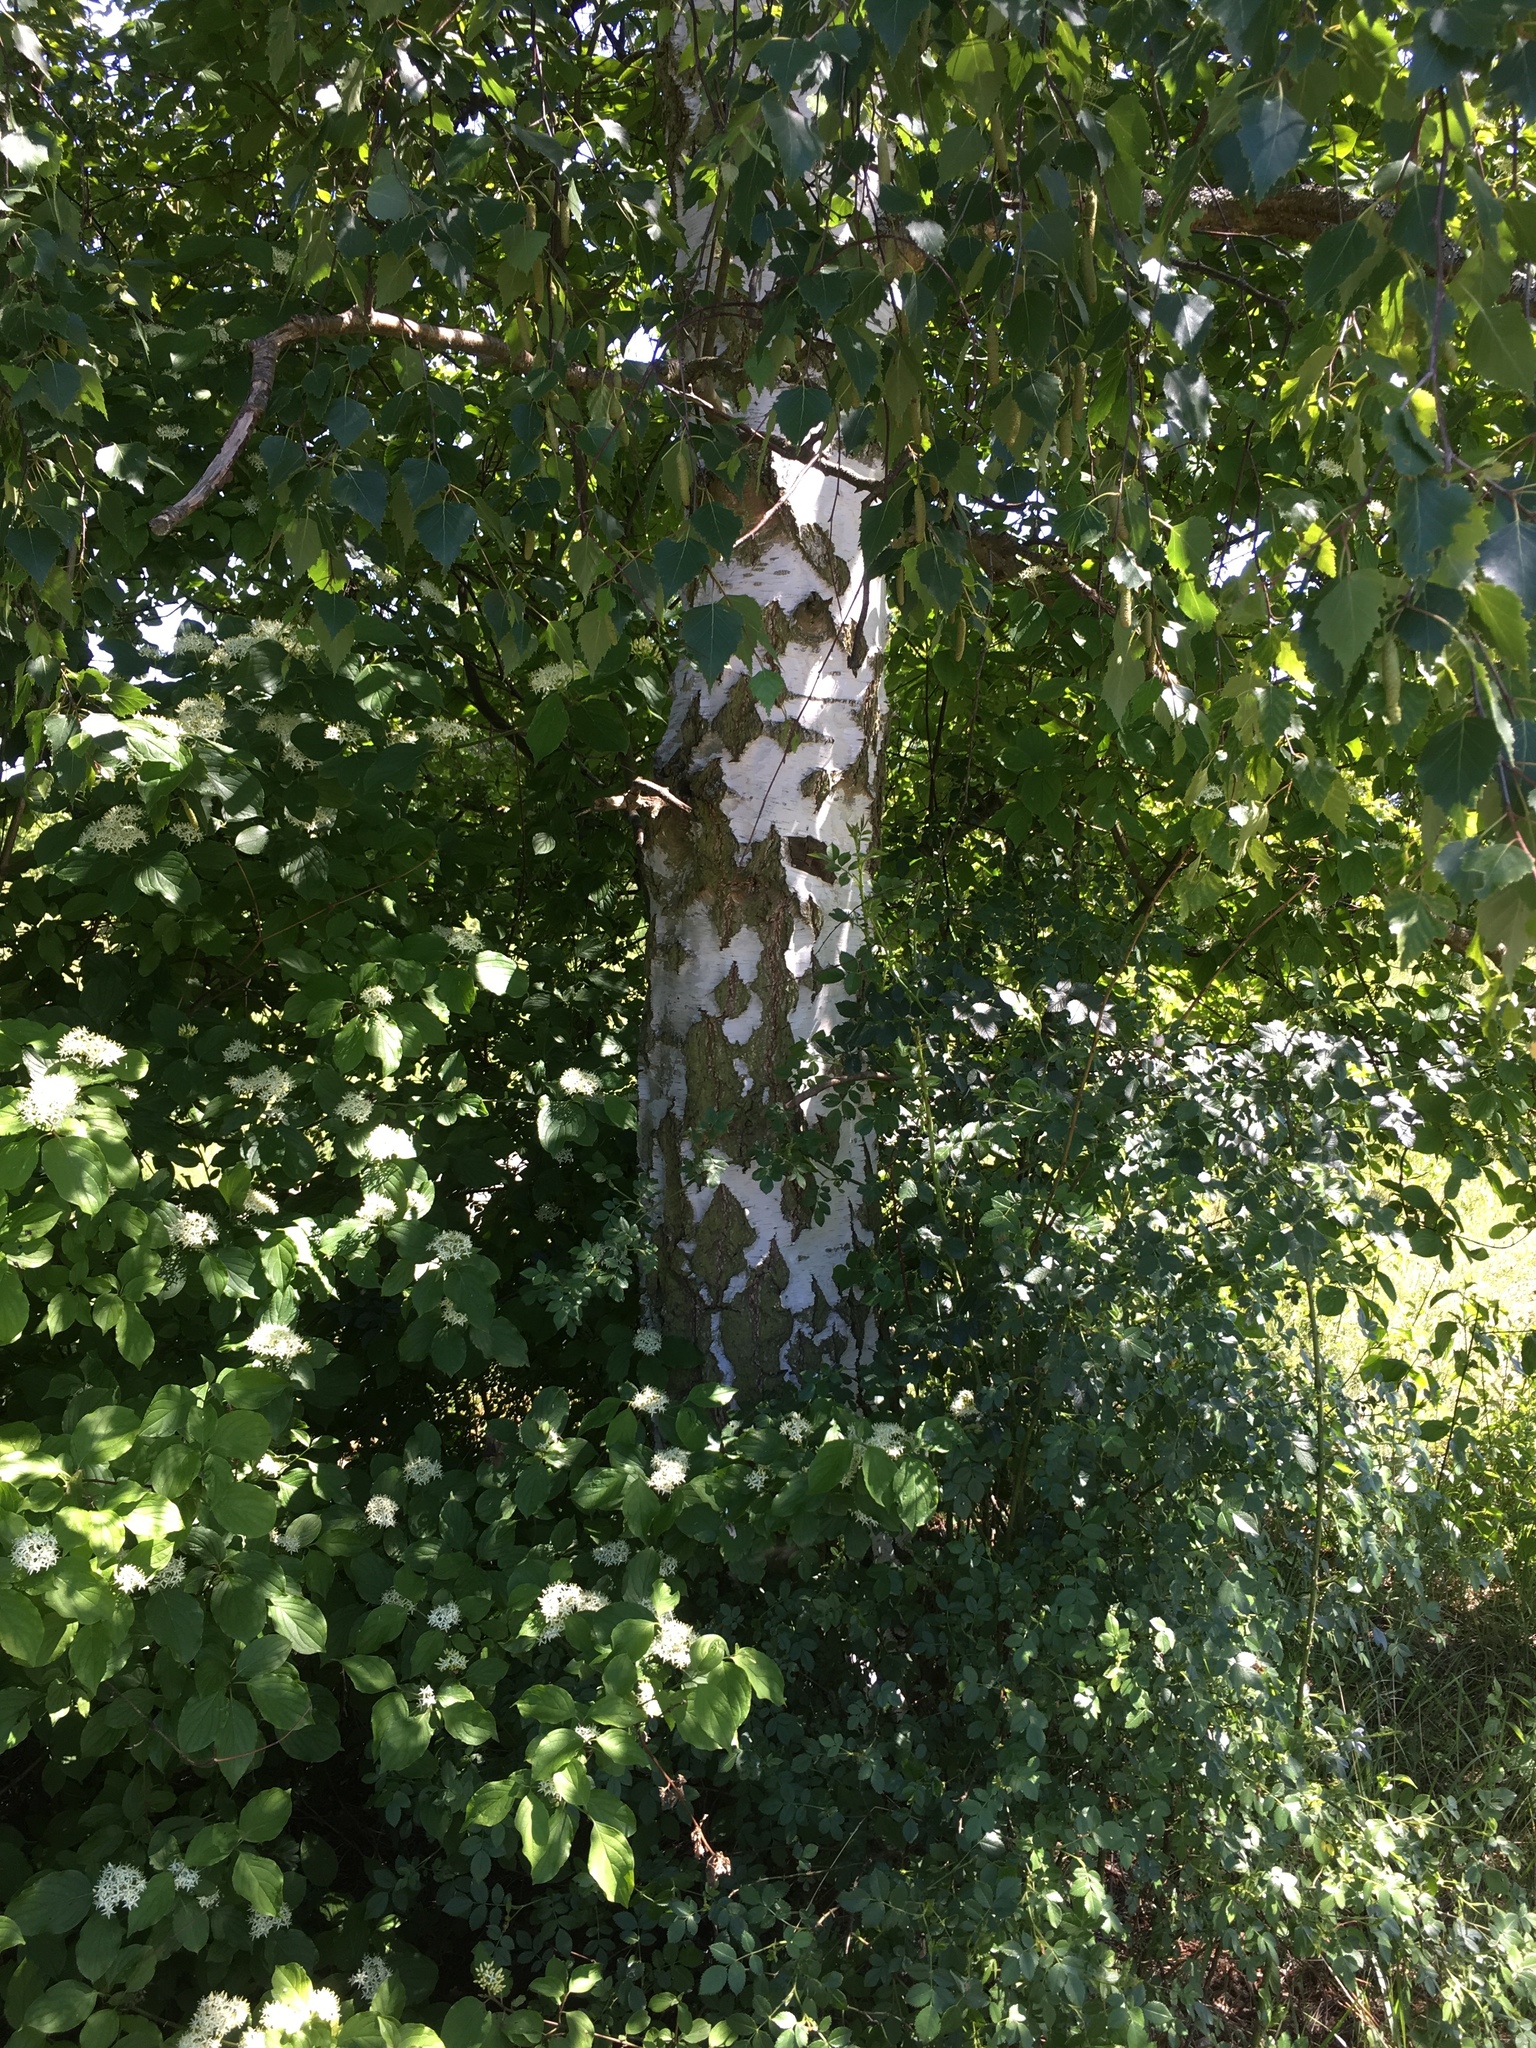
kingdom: Plantae
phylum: Tracheophyta
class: Magnoliopsida
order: Fagales
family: Betulaceae
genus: Betula
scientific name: Betula pendula
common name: Silver birch
